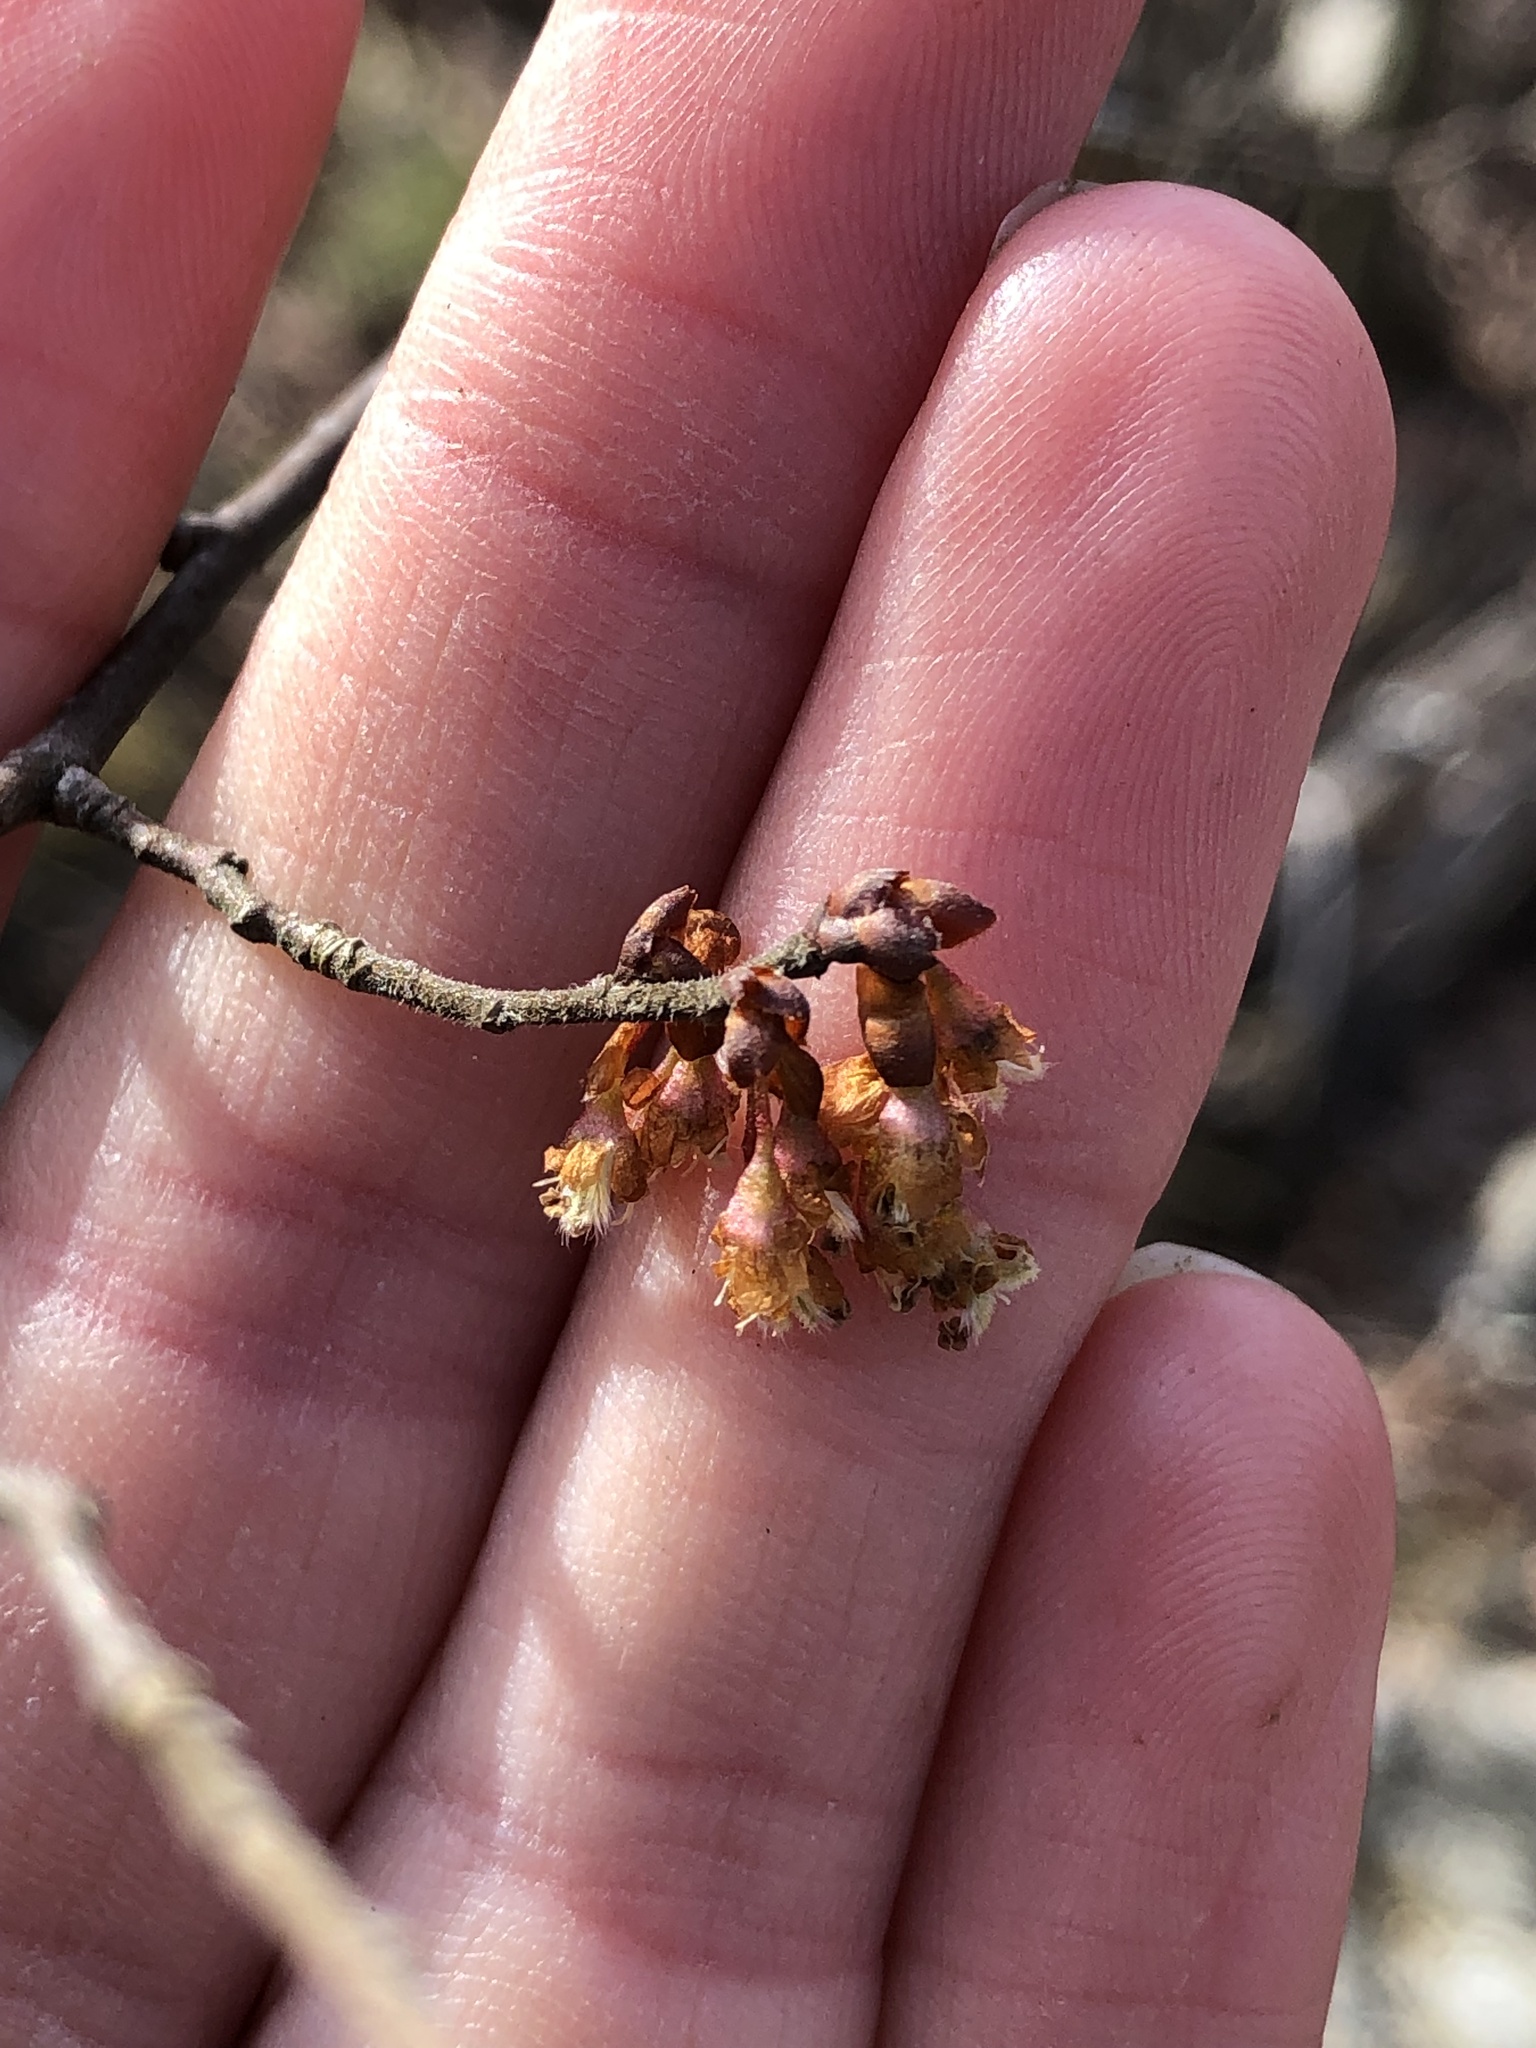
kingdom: Plantae
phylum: Tracheophyta
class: Magnoliopsida
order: Rosales
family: Ulmaceae
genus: Ulmus
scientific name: Ulmus alata
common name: Winged elm
